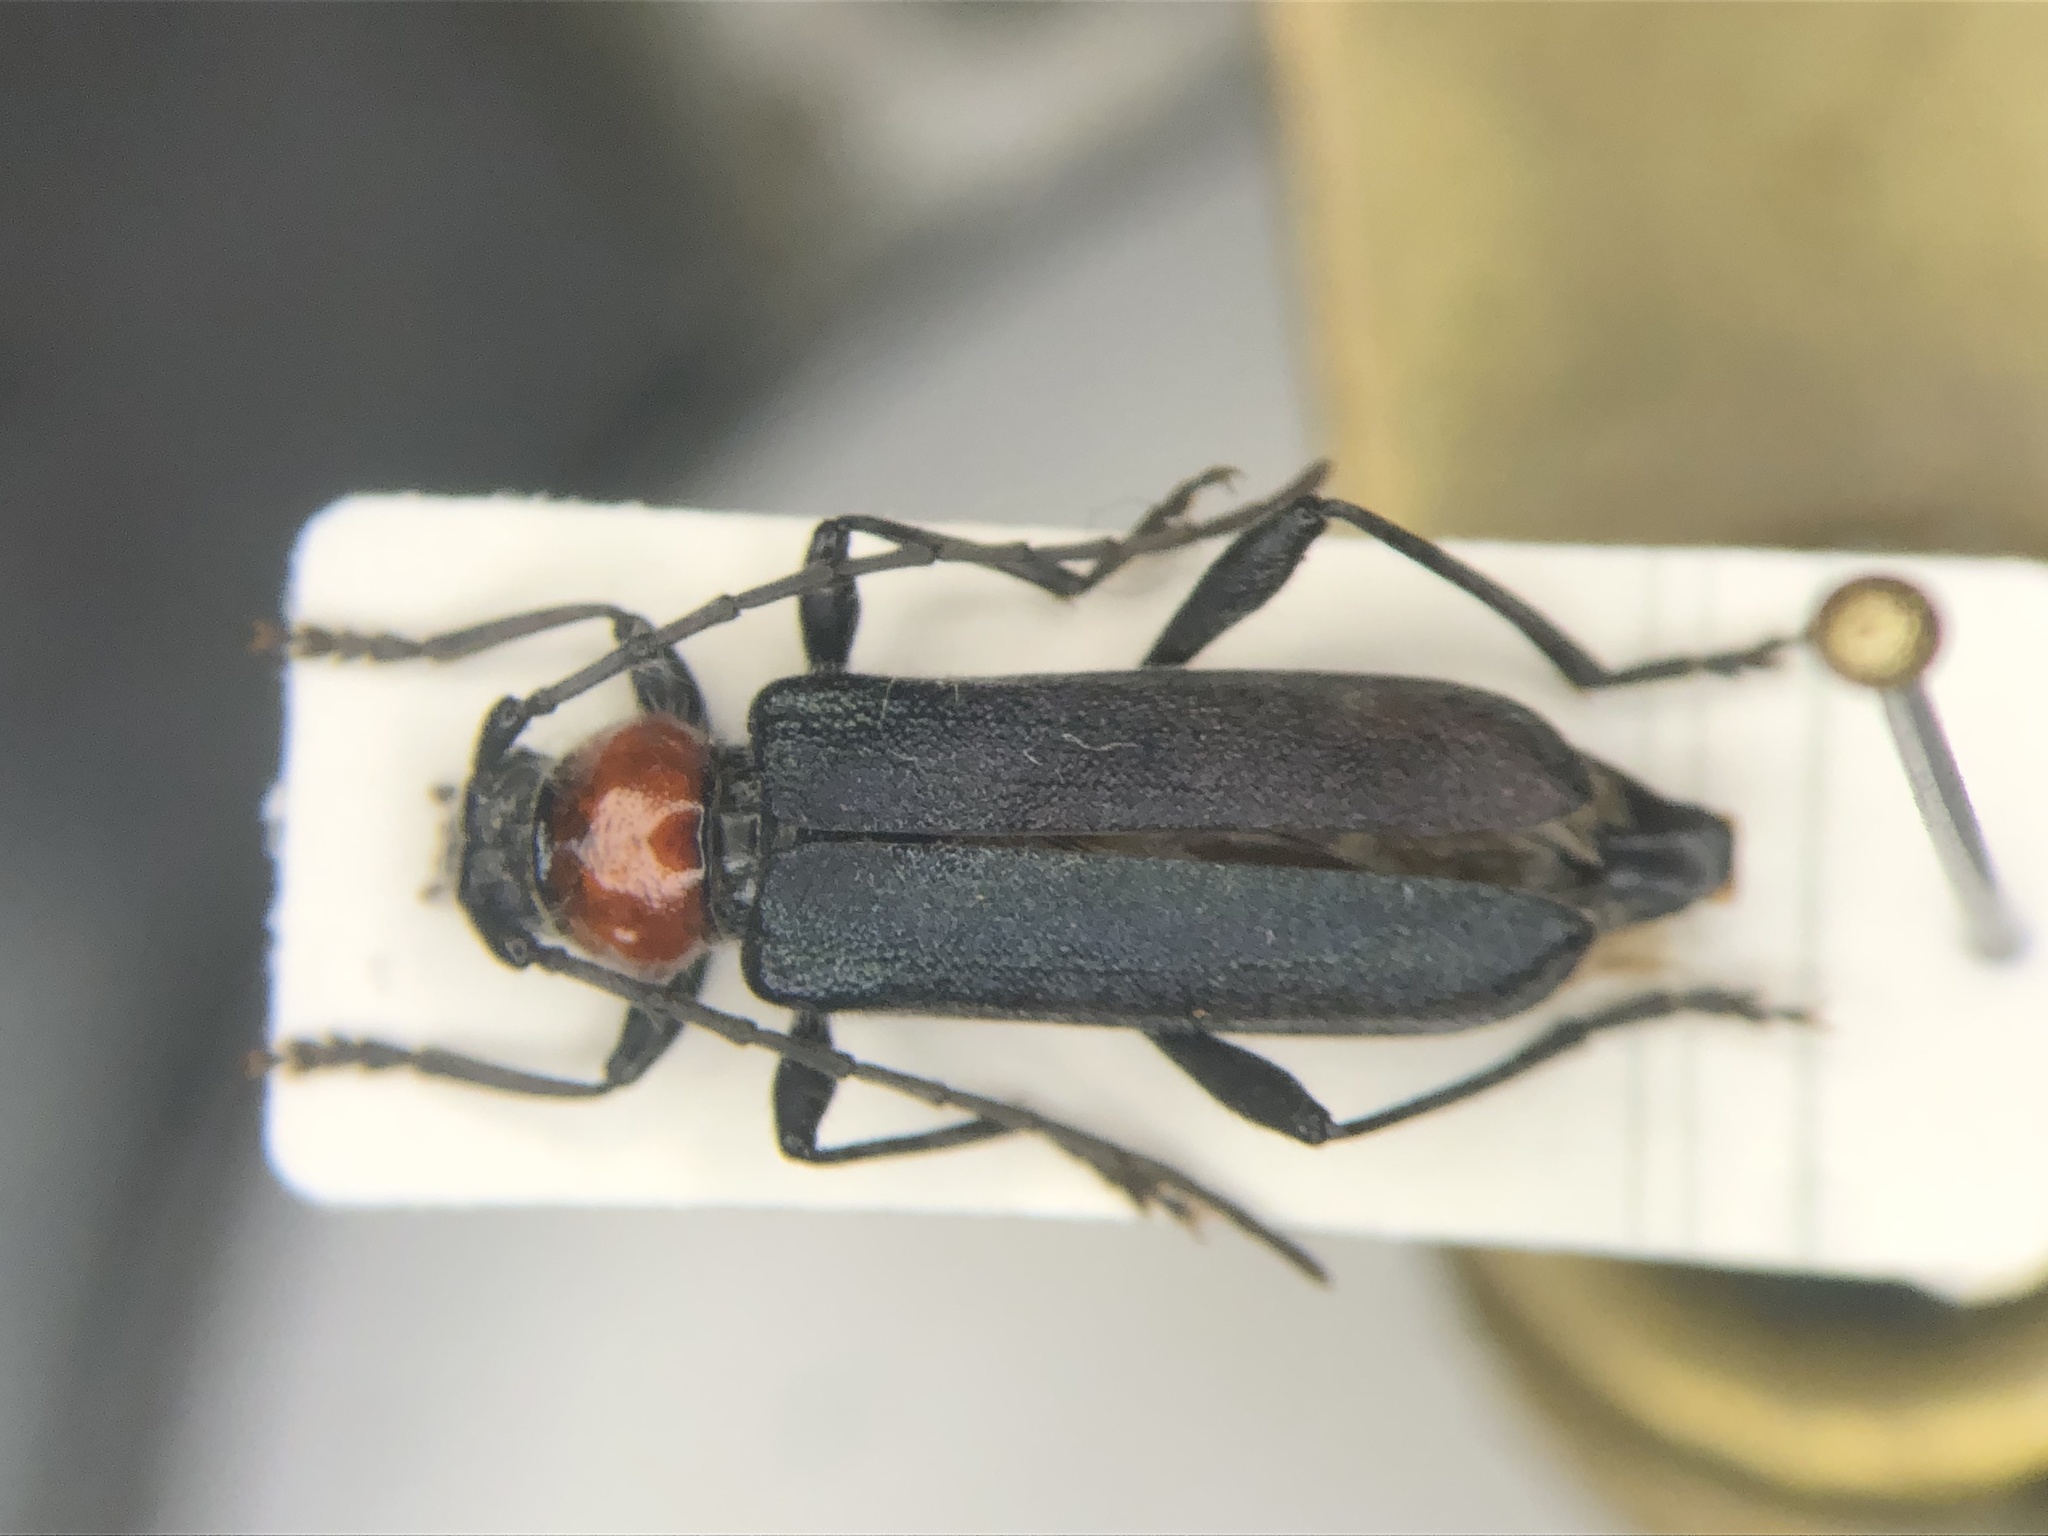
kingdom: Animalia
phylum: Arthropoda
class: Insecta
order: Coleoptera
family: Cerambycidae
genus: Pronocera
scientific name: Pronocera collaris
